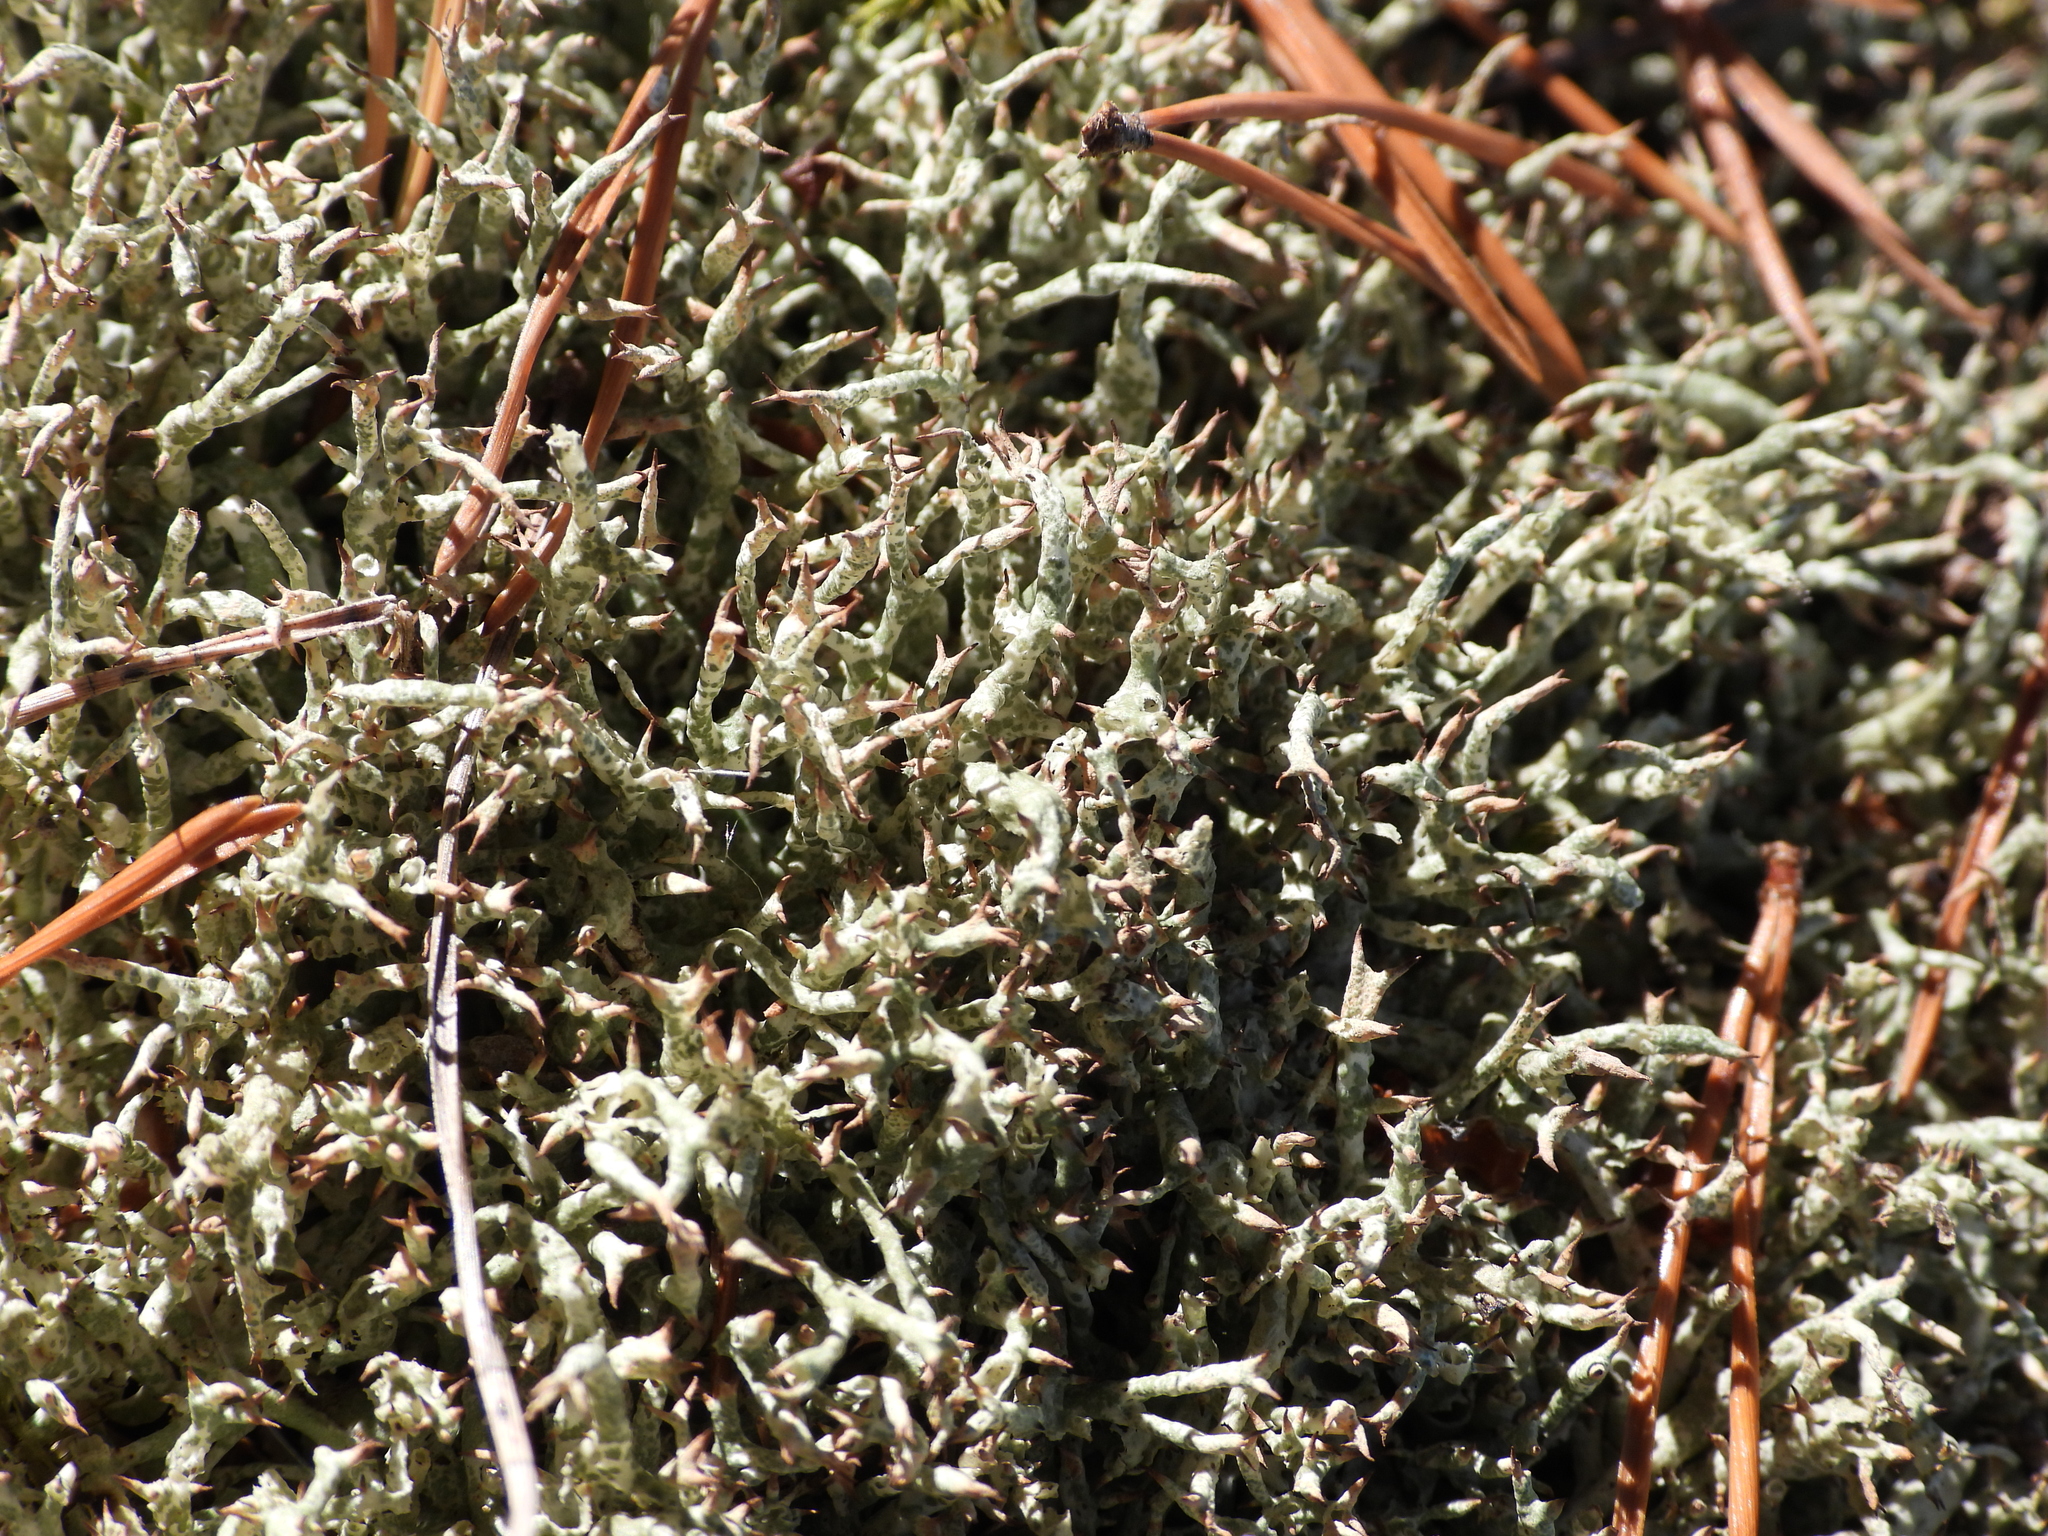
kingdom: Fungi
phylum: Ascomycota
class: Lecanoromycetes
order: Lecanorales
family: Cladoniaceae
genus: Cladonia
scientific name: Cladonia uncialis
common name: Thorn lichen
